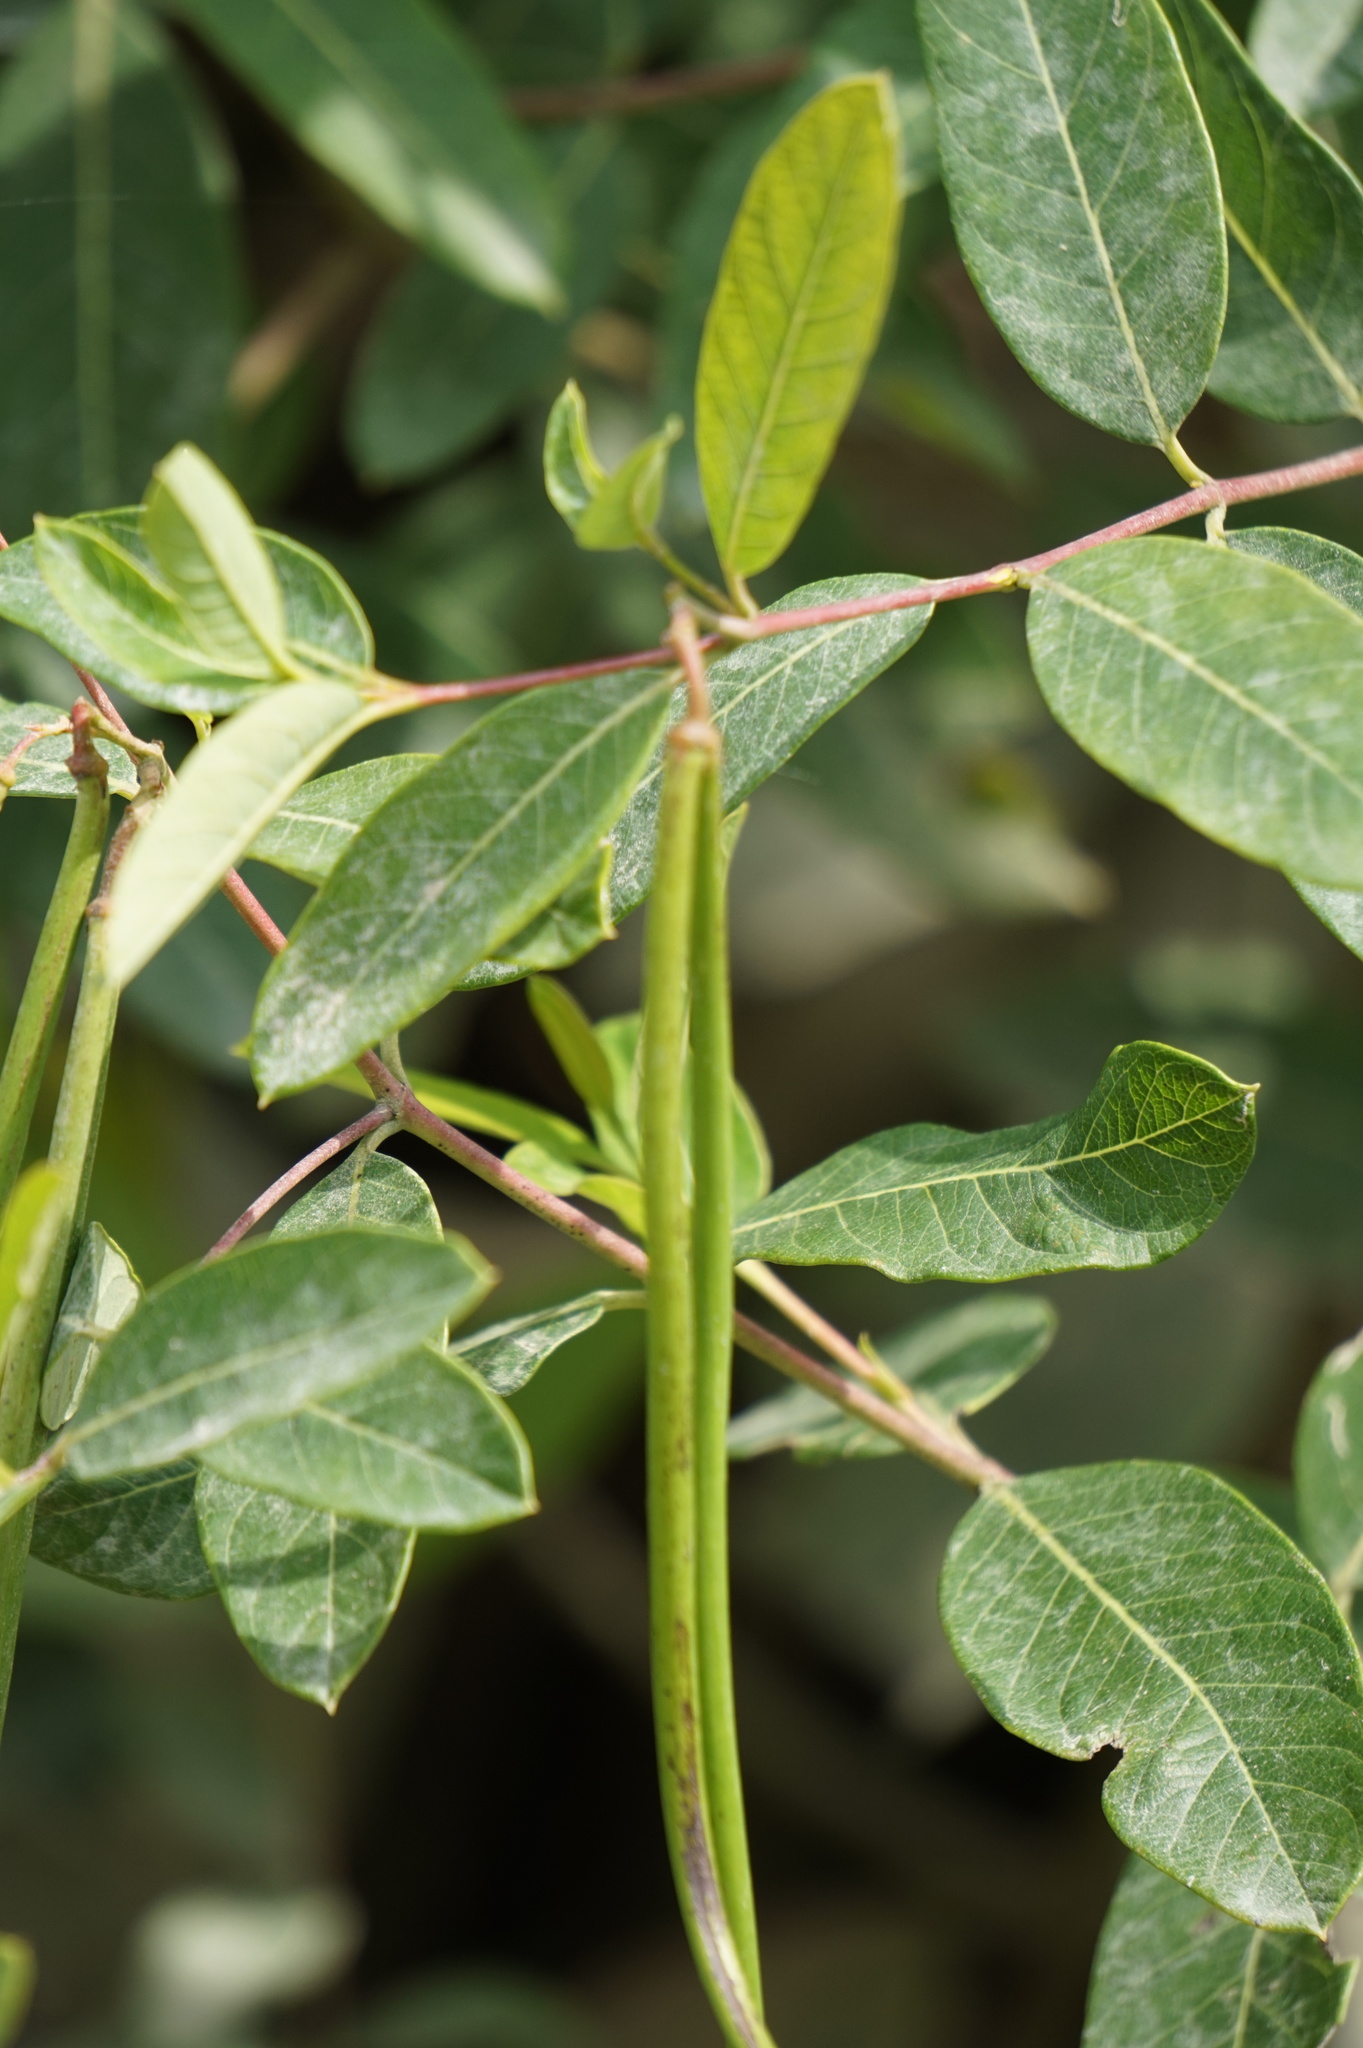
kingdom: Plantae
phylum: Tracheophyta
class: Magnoliopsida
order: Gentianales
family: Apocynaceae
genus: Apocynum
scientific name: Apocynum cannabinum
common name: Hemp dogbane
